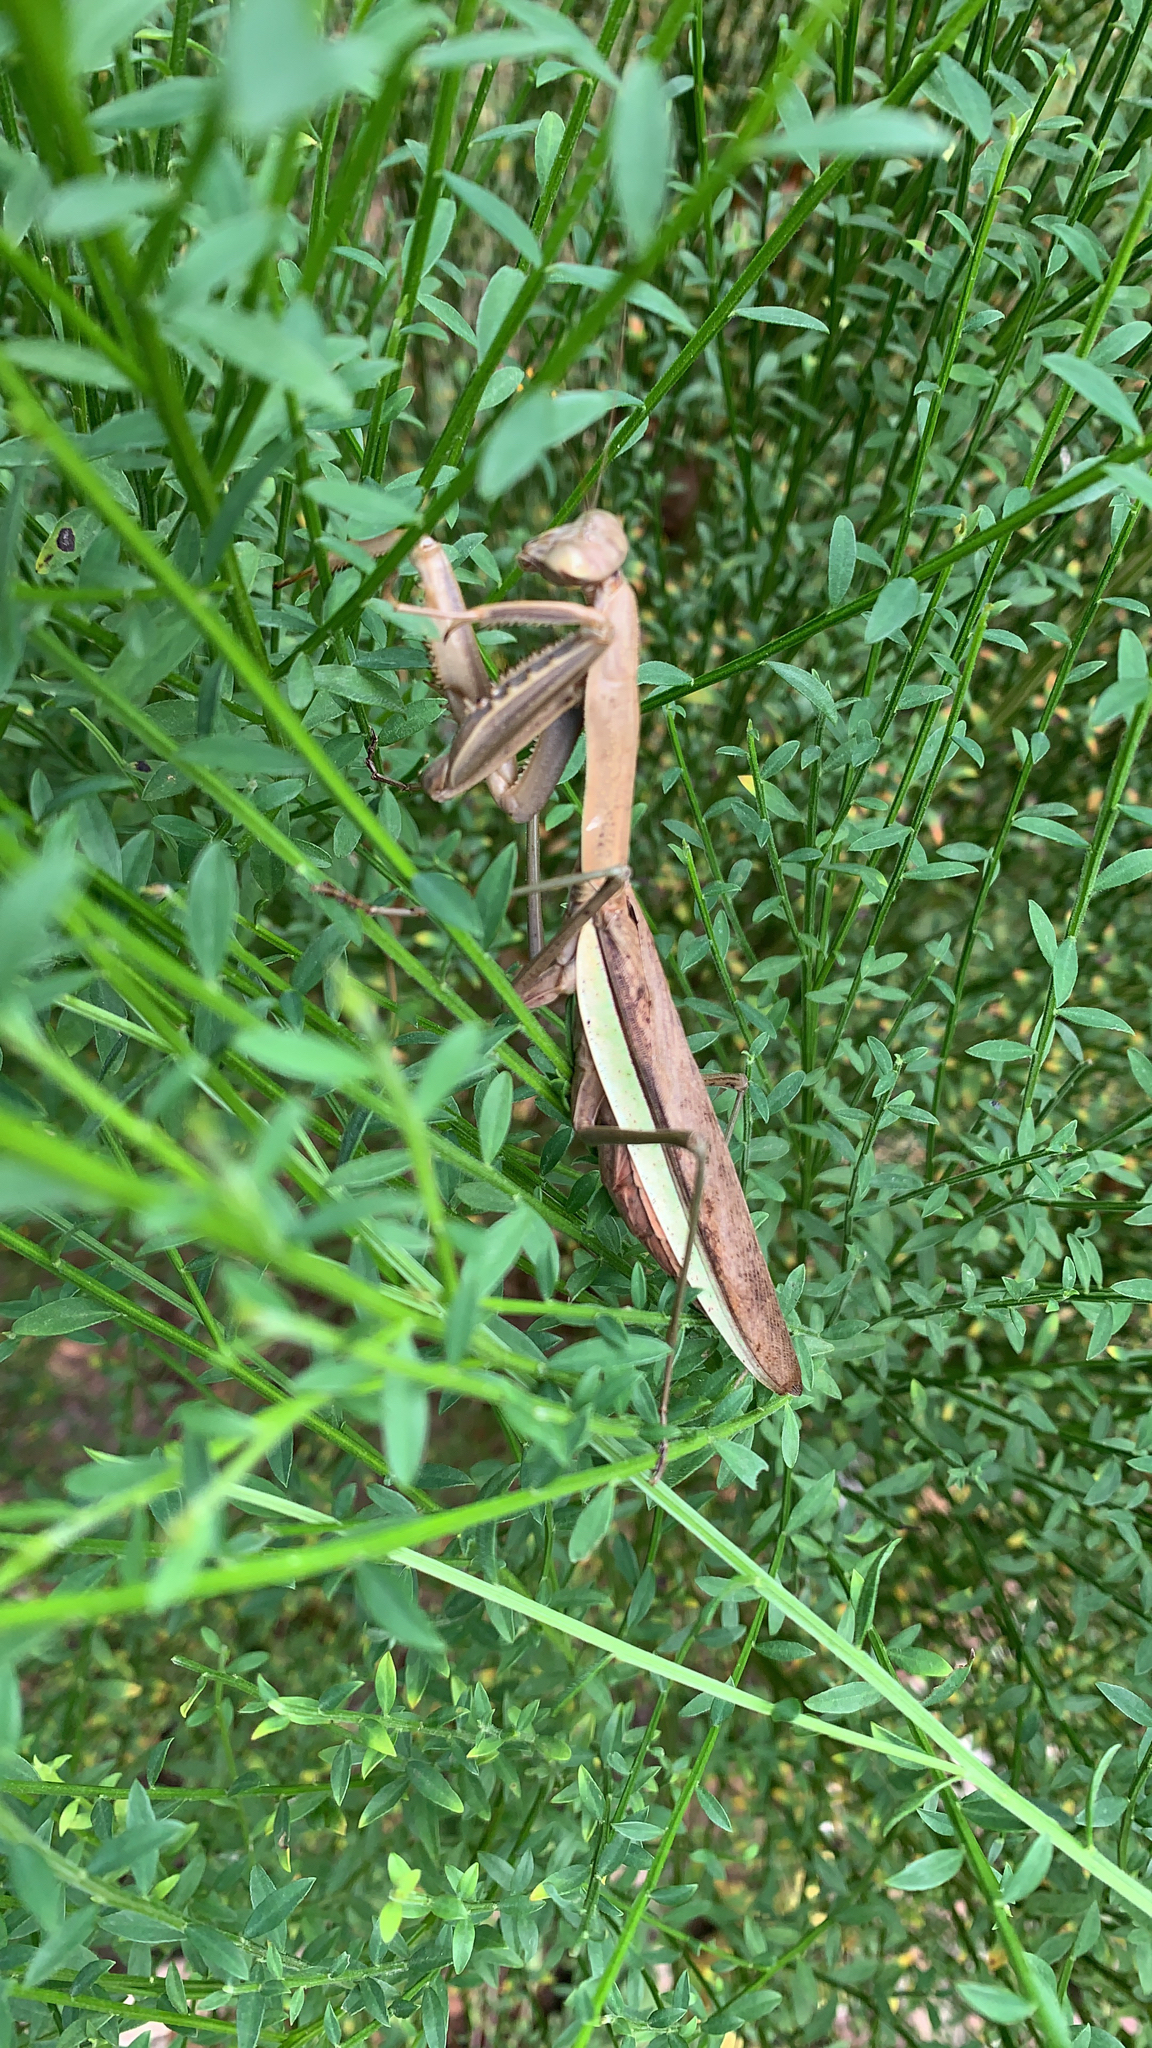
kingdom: Animalia
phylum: Arthropoda
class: Insecta
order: Mantodea
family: Mantidae
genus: Tenodera
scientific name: Tenodera sinensis
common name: Chinese mantis
